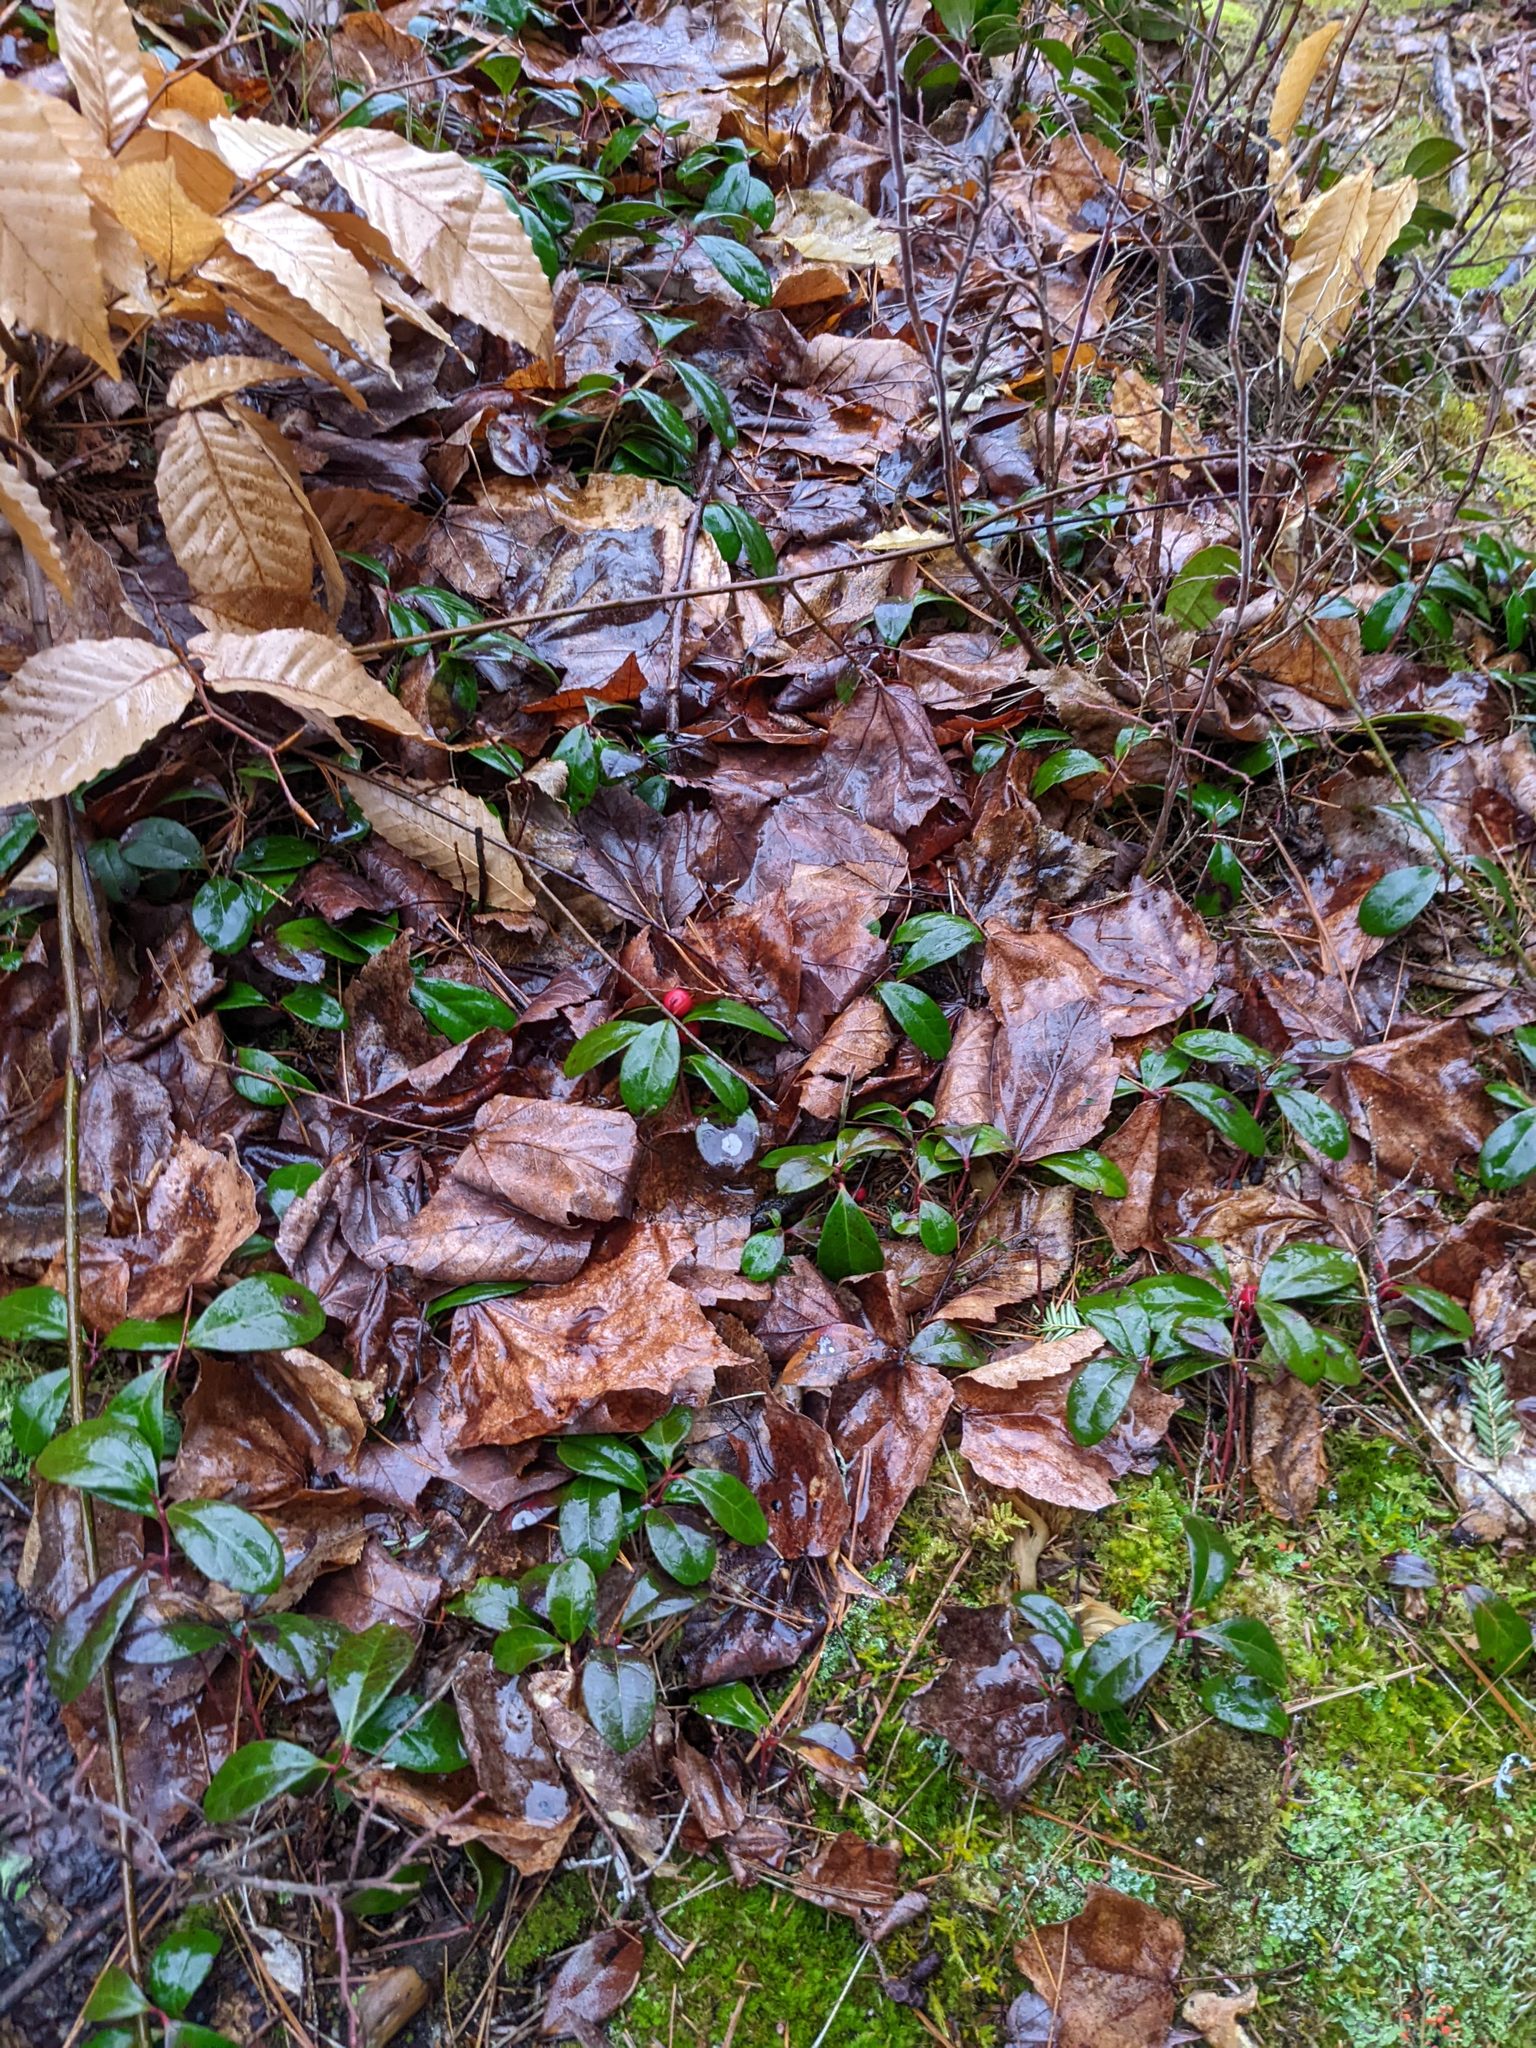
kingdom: Plantae
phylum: Tracheophyta
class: Magnoliopsida
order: Ericales
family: Ericaceae
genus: Gaultheria
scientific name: Gaultheria procumbens
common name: Checkerberry
